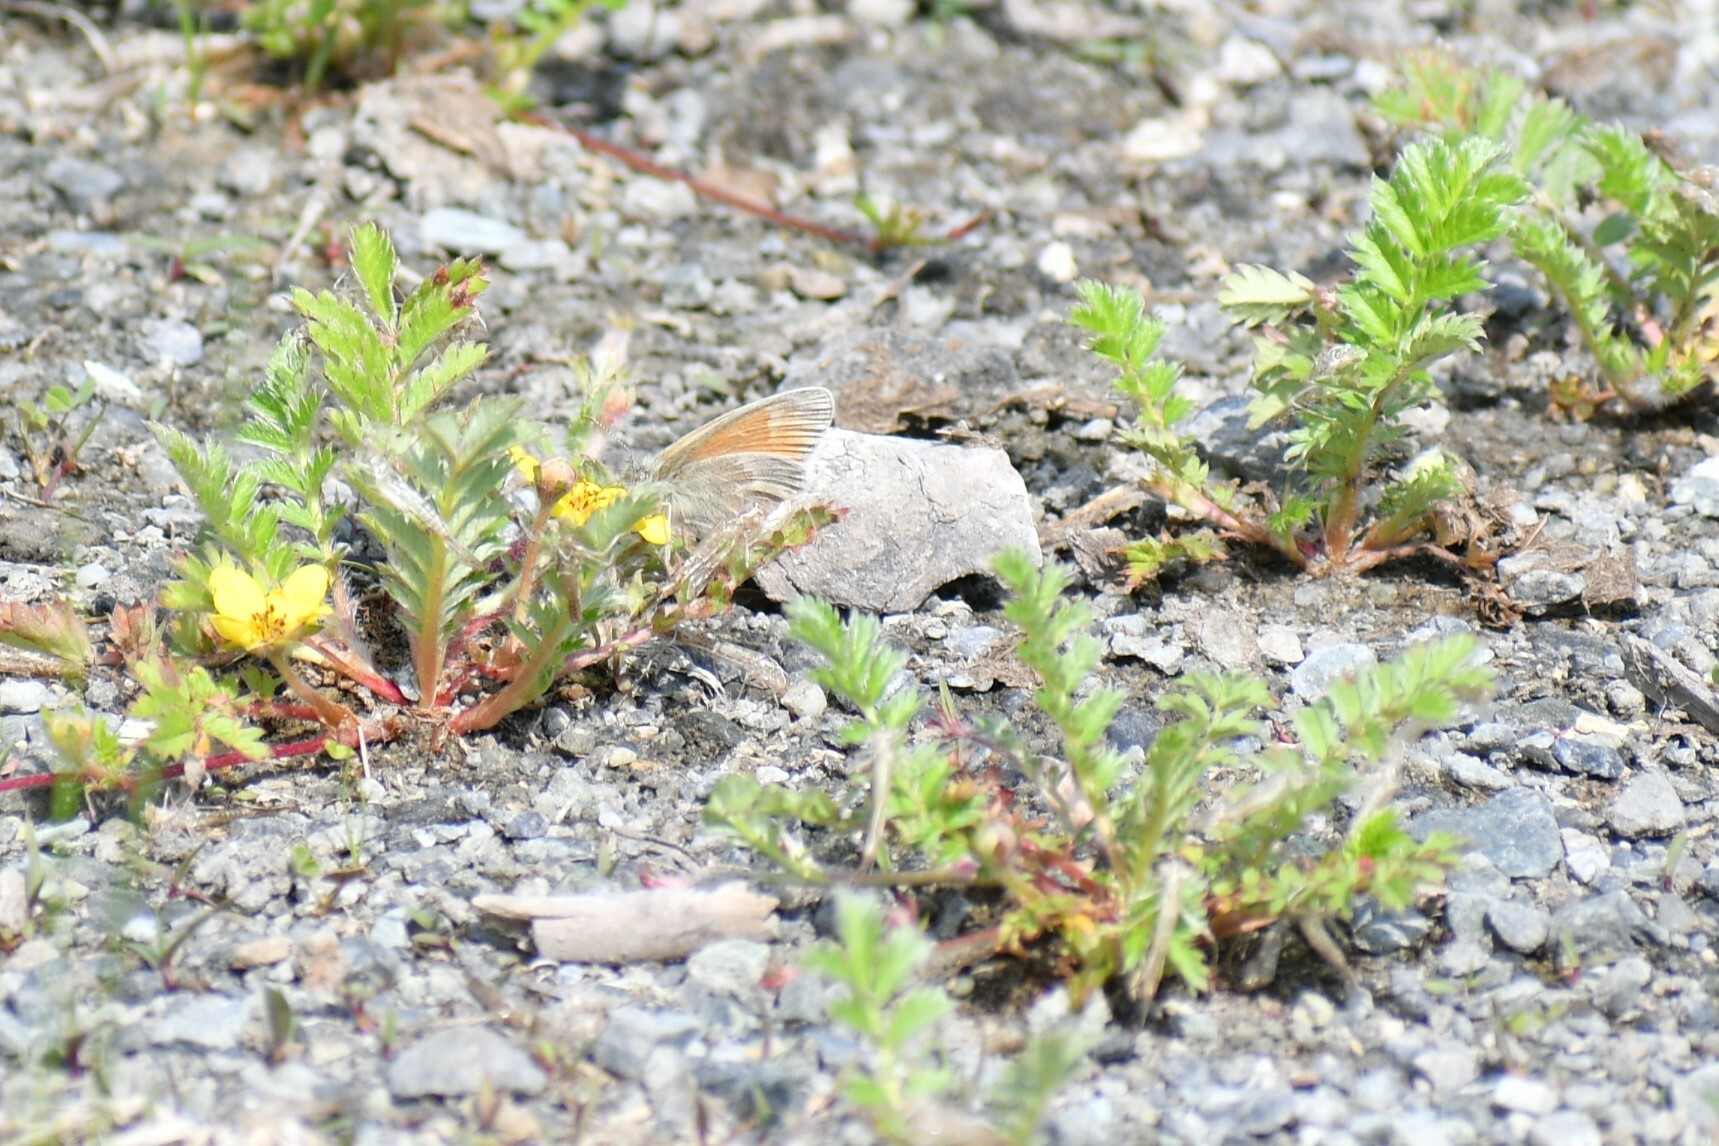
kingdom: Animalia
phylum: Arthropoda
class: Insecta
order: Lepidoptera
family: Nymphalidae
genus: Coenonympha
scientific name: Coenonympha california
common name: Common ringlet
